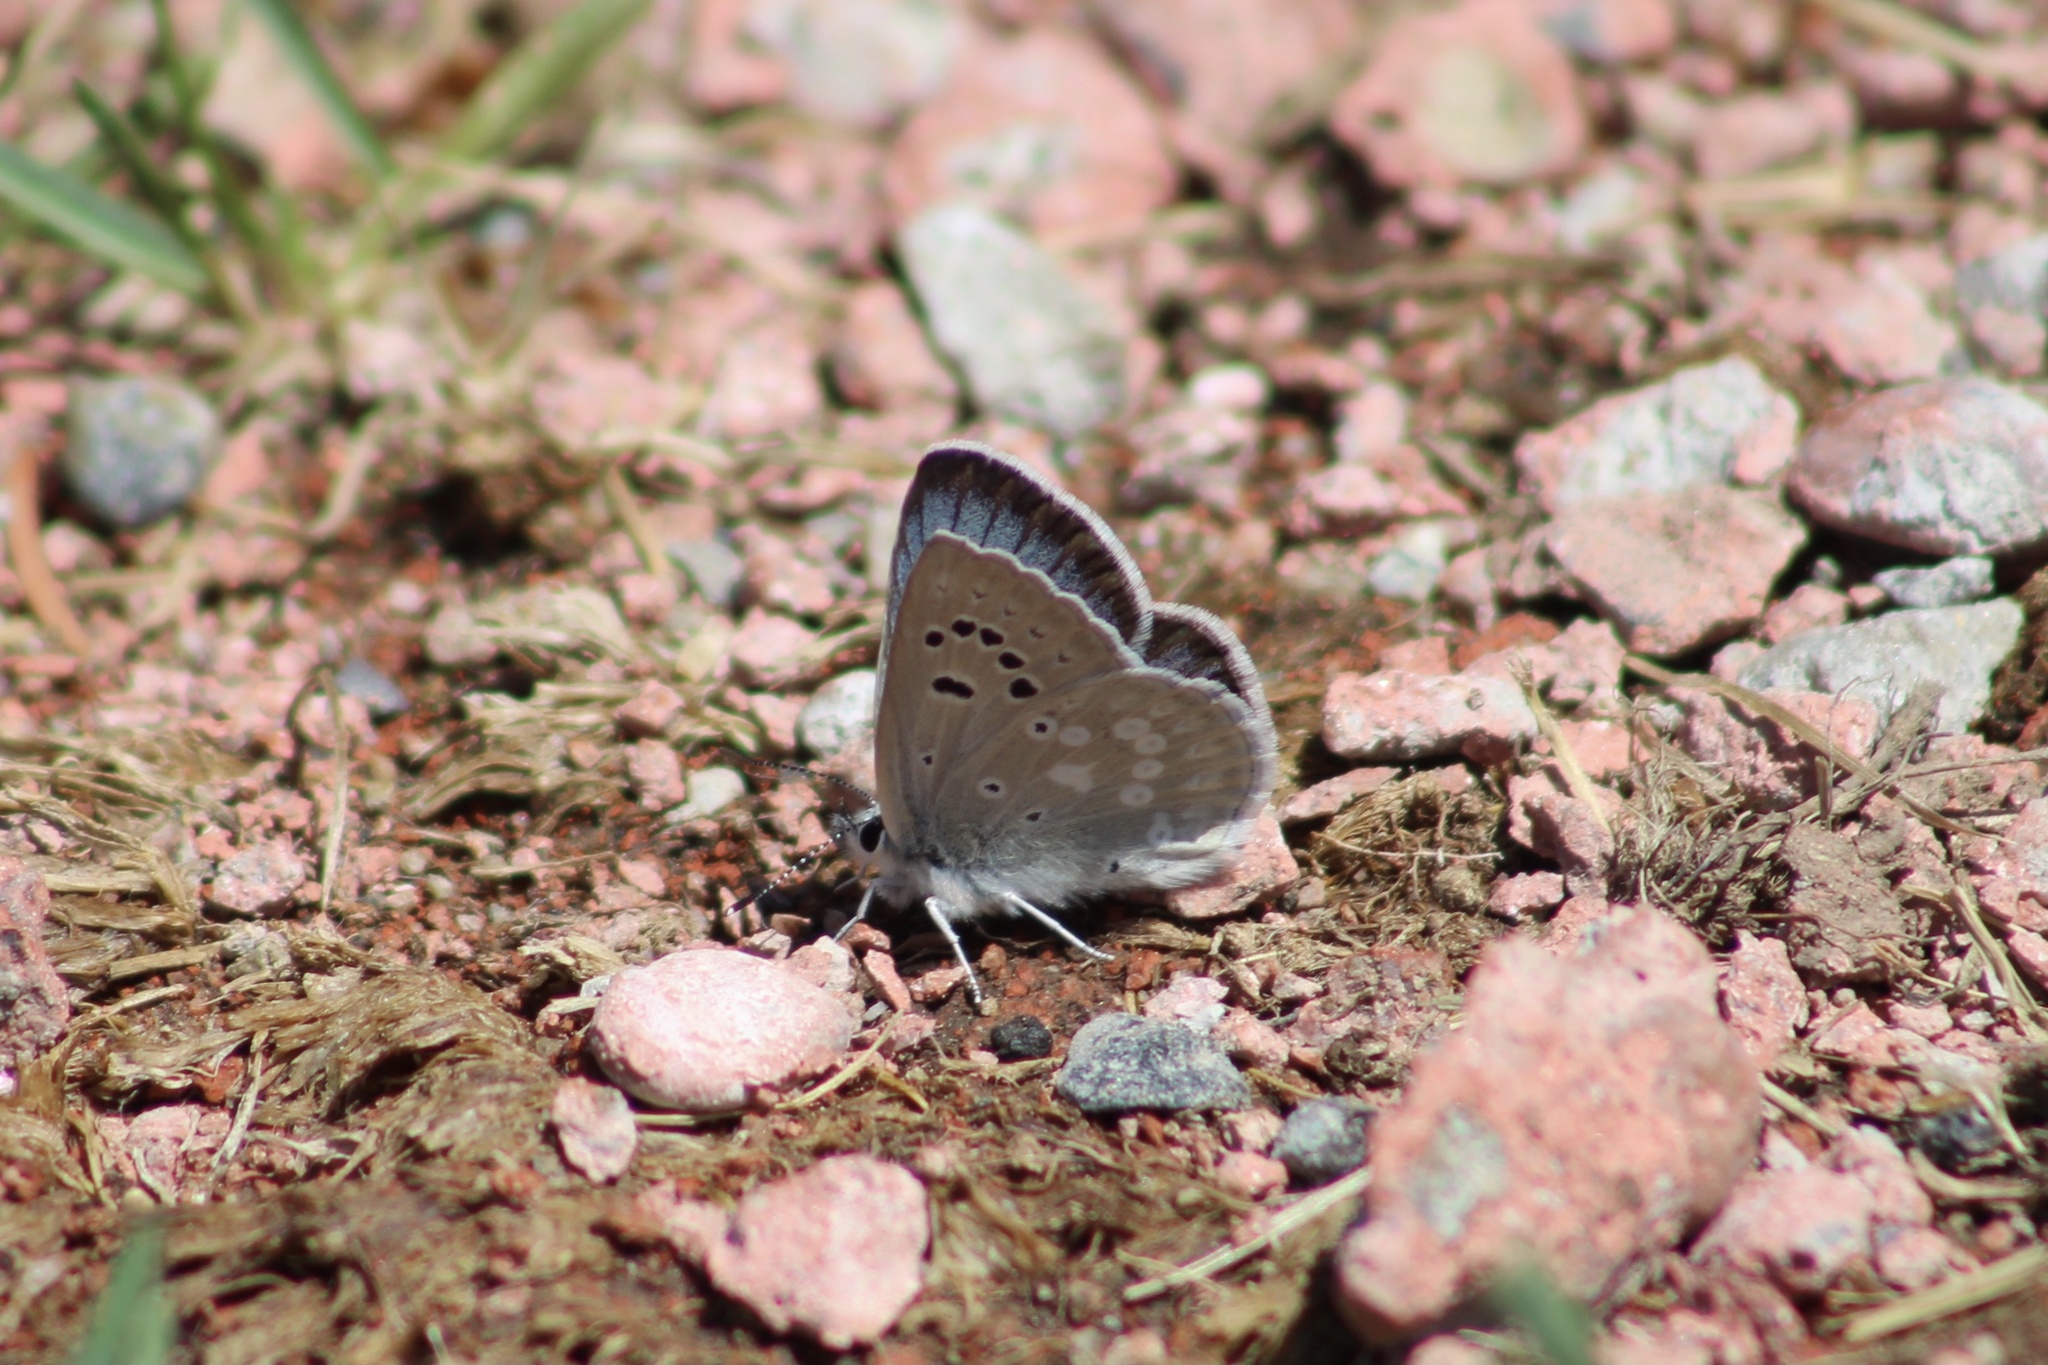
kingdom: Animalia
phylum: Arthropoda
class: Insecta
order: Lepidoptera
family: Lycaenidae
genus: Icaricia
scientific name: Icaricia icarioides
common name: Boisduval's blue
